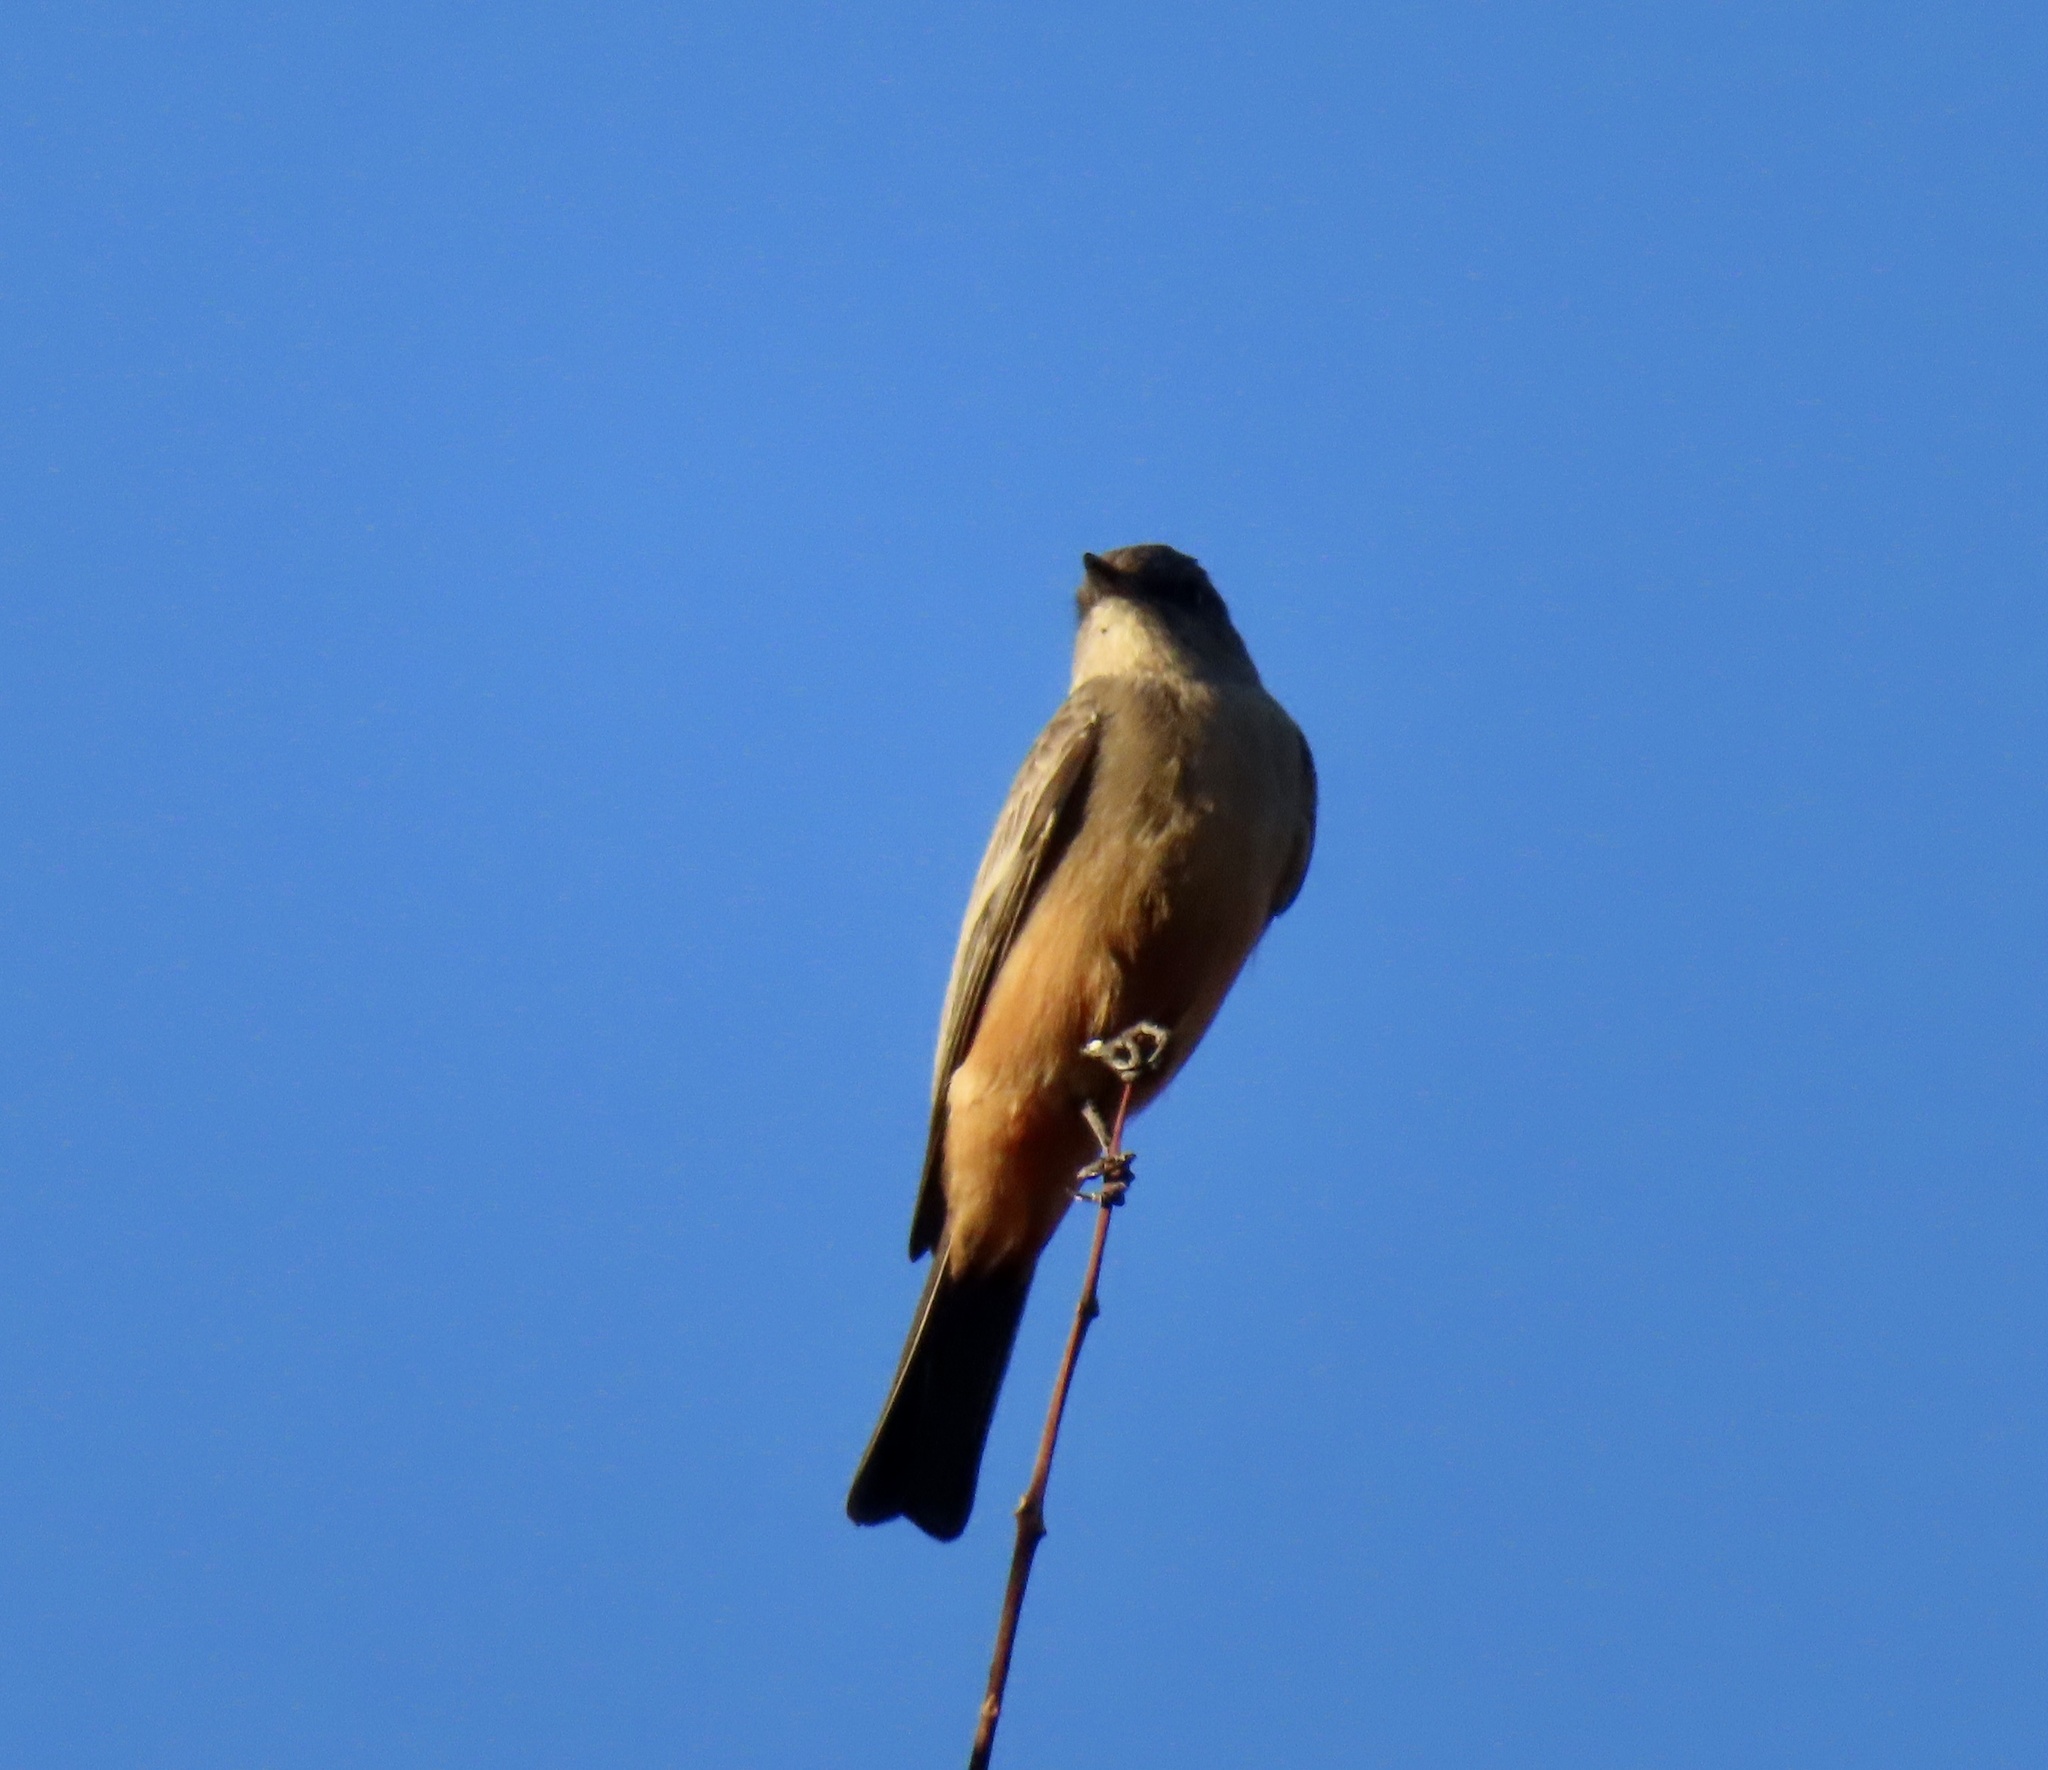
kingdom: Animalia
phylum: Chordata
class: Aves
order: Passeriformes
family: Tyrannidae
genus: Sayornis
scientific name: Sayornis saya
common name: Say's phoebe
